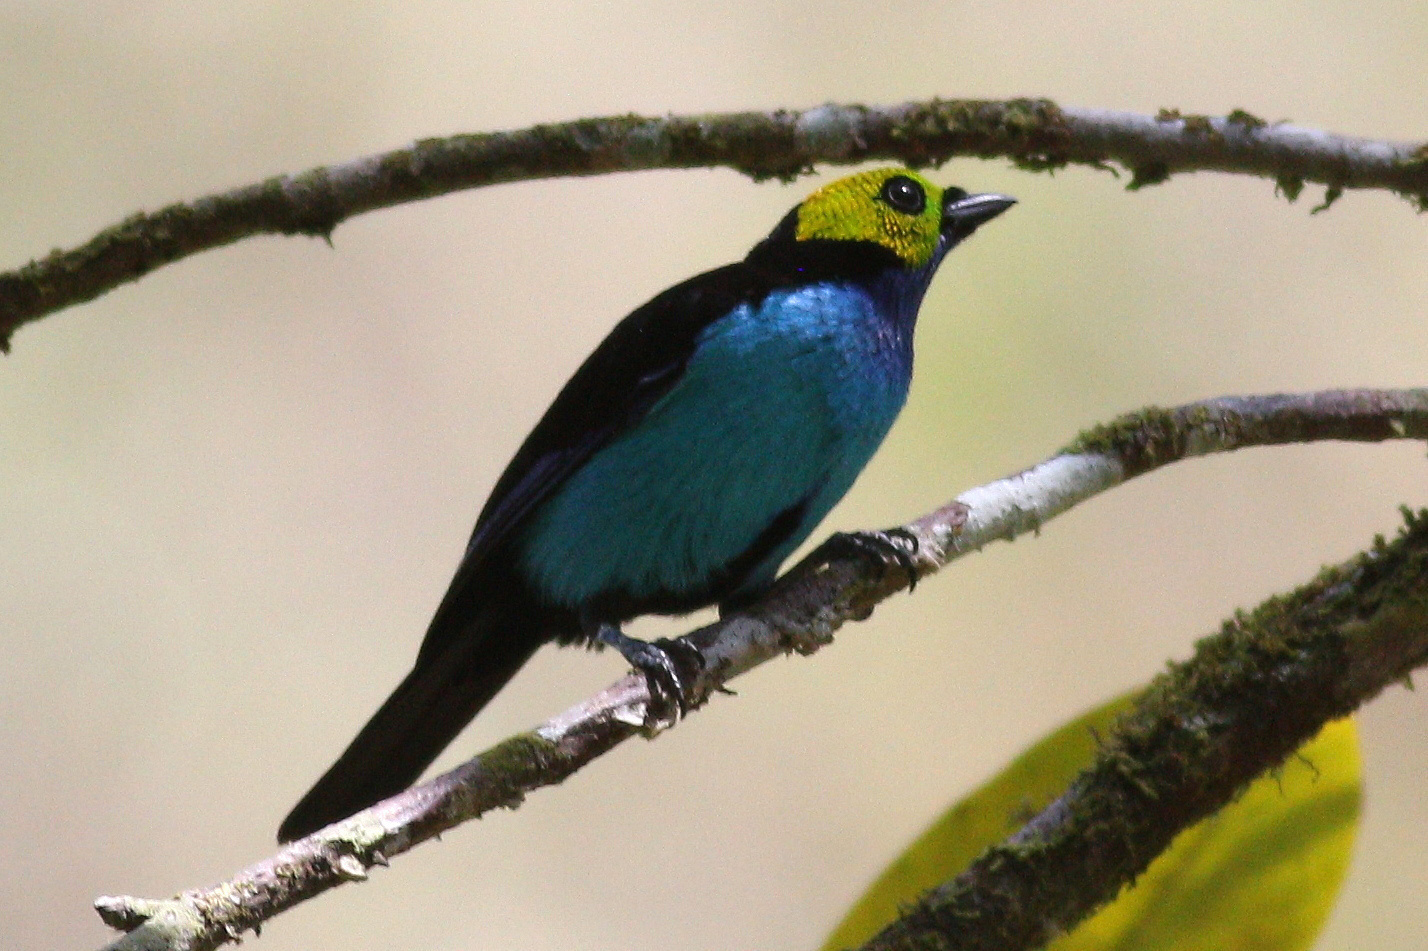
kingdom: Animalia
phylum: Chordata
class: Aves
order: Passeriformes
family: Thraupidae
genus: Tangara
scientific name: Tangara chilensis
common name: Paradise tanager
